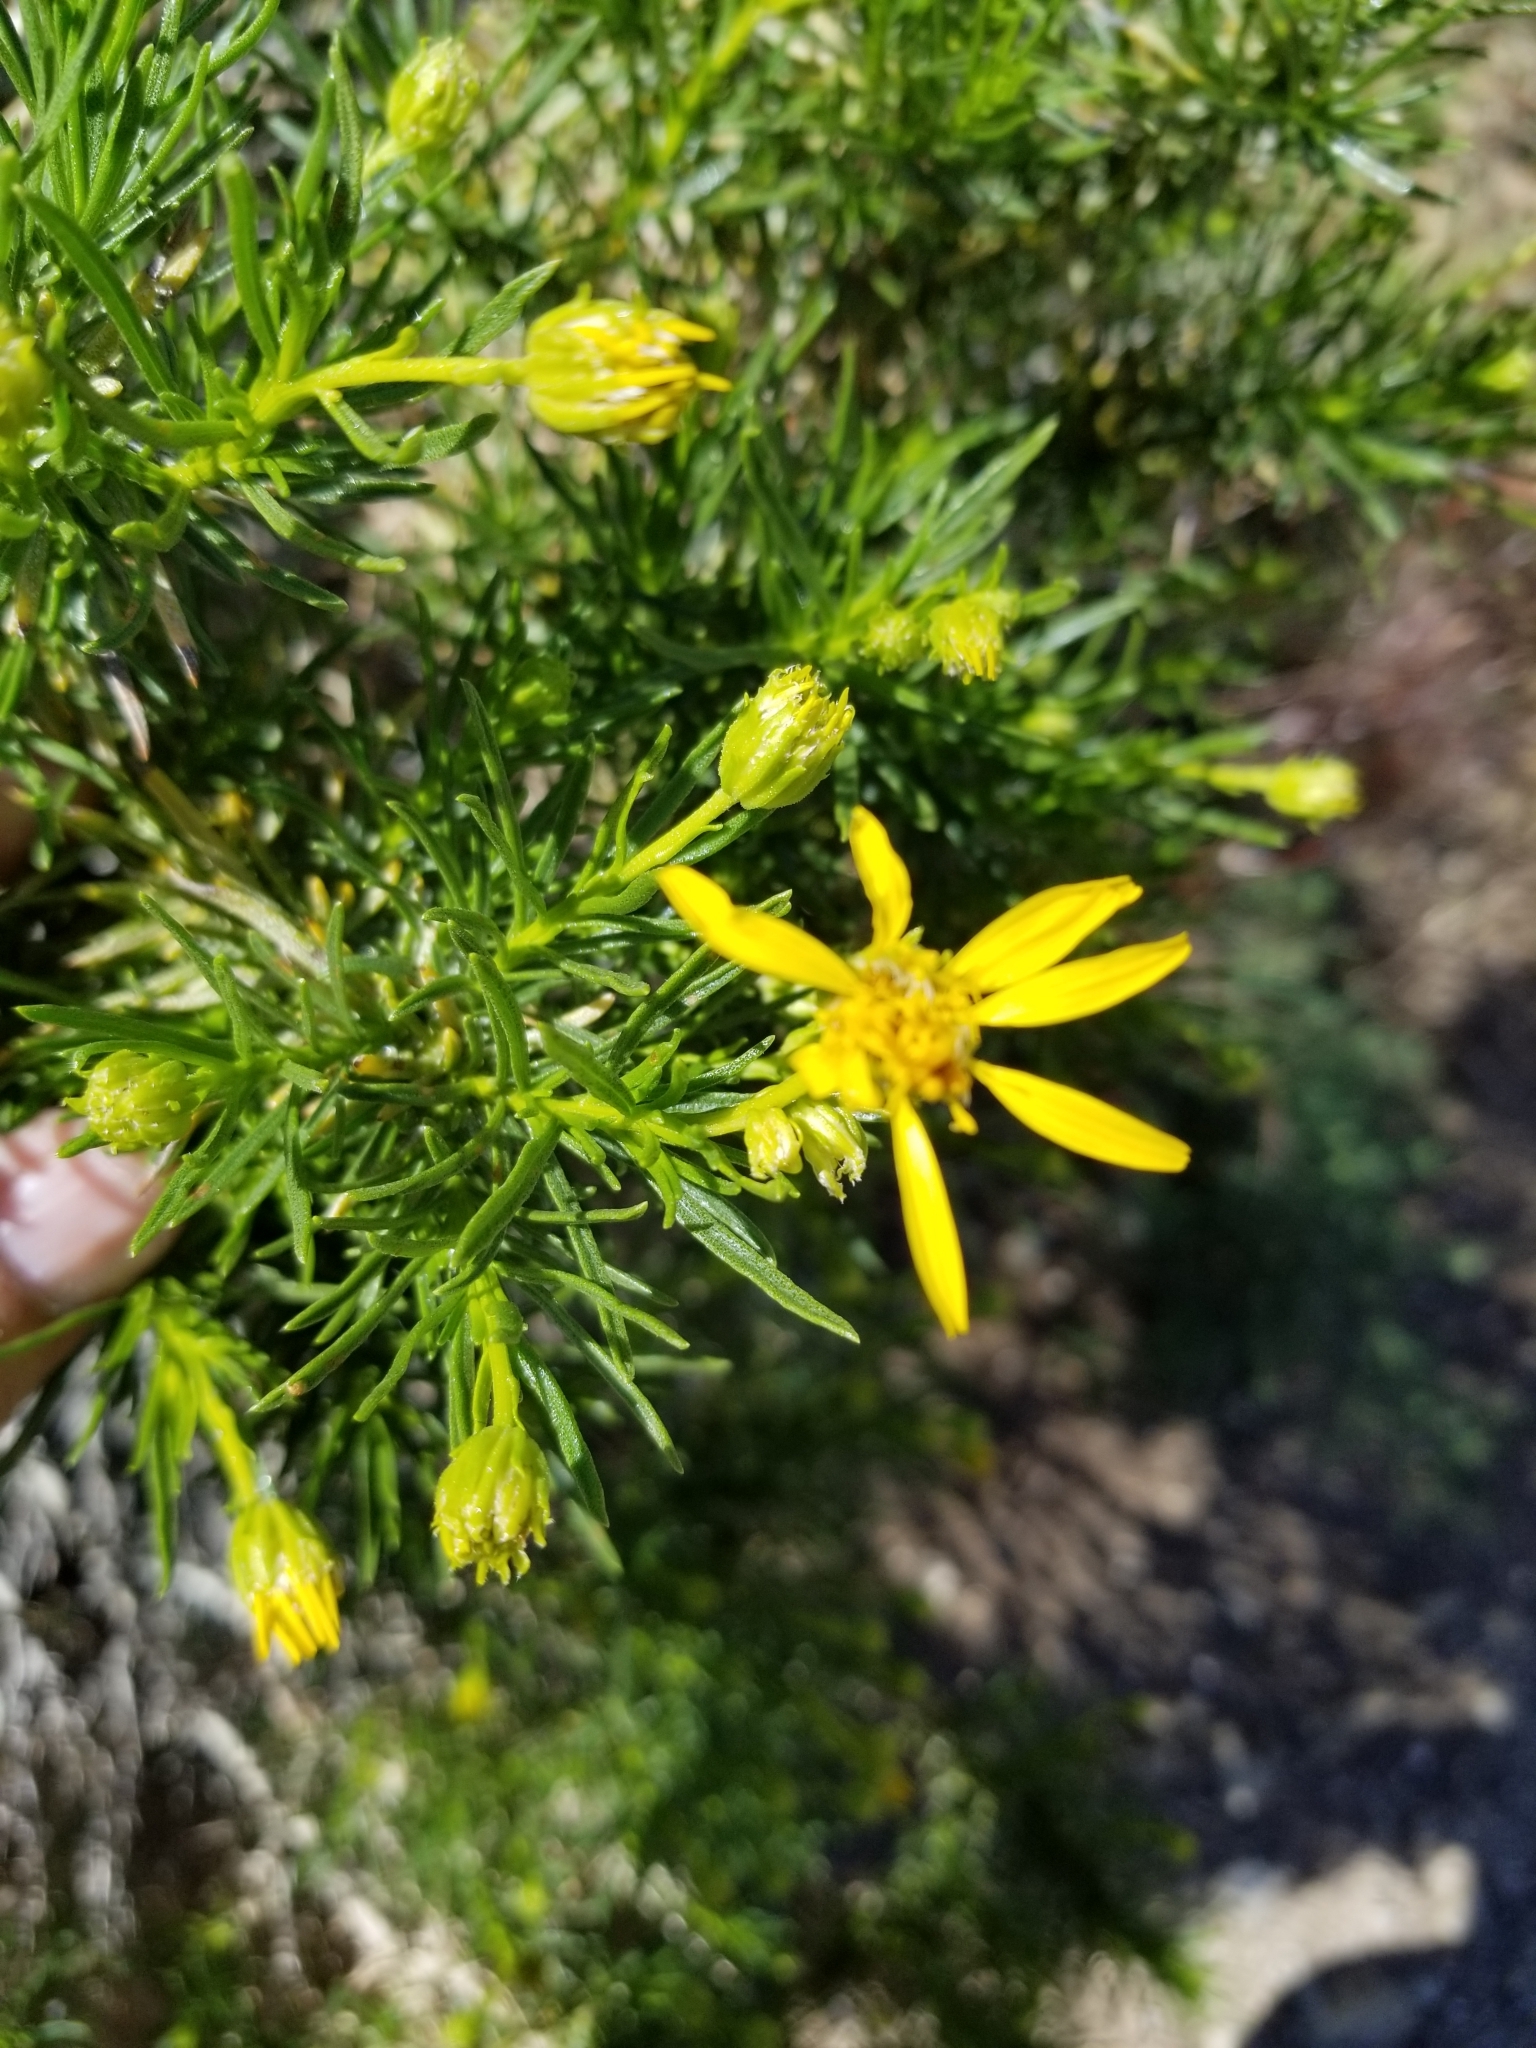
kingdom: Plantae
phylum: Tracheophyta
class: Magnoliopsida
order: Asterales
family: Asteraceae
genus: Ericameria
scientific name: Ericameria linearifolia
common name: Interior goldenbush
